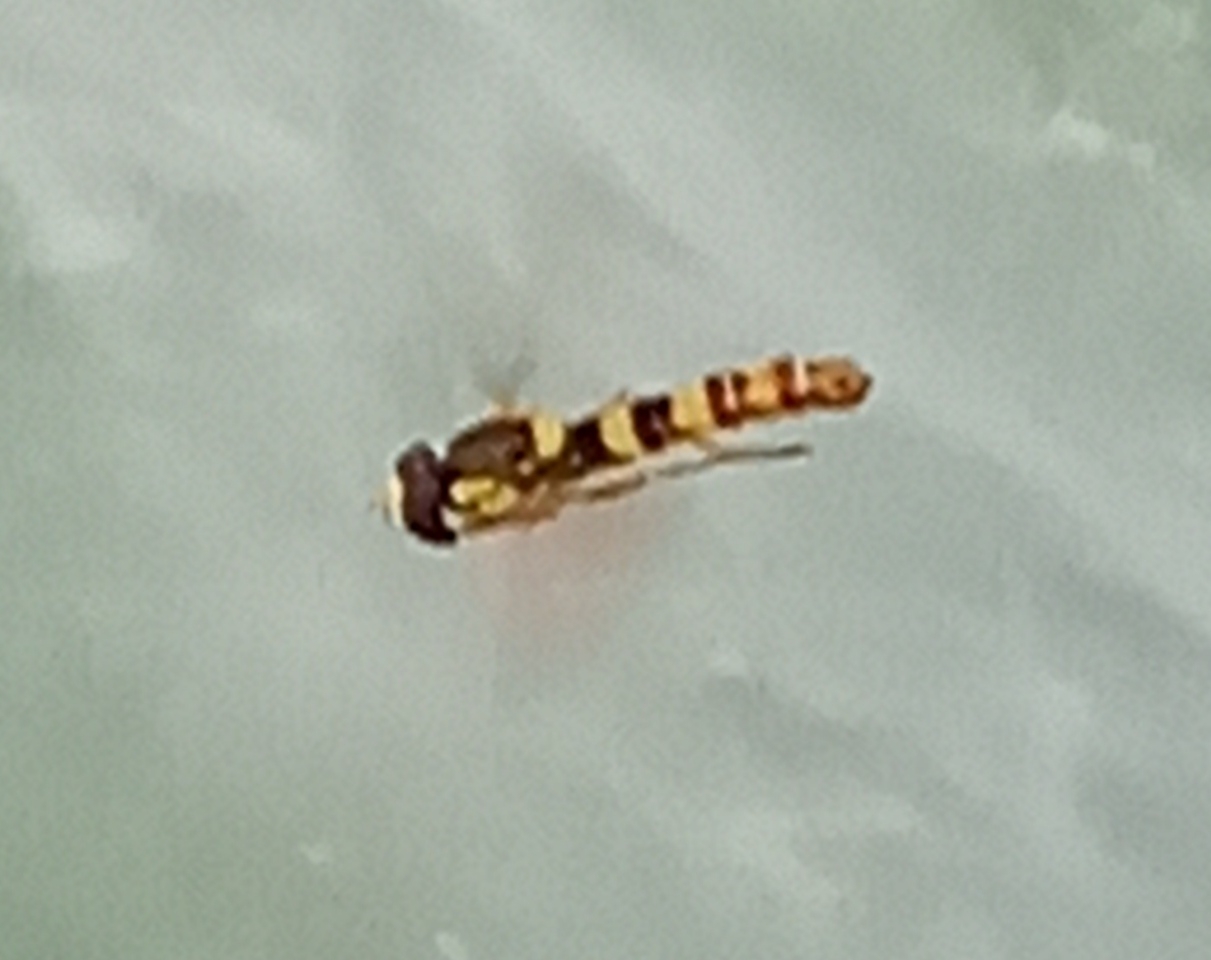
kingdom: Animalia
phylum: Arthropoda
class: Insecta
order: Diptera
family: Syrphidae
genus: Sphaerophoria
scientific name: Sphaerophoria scripta
